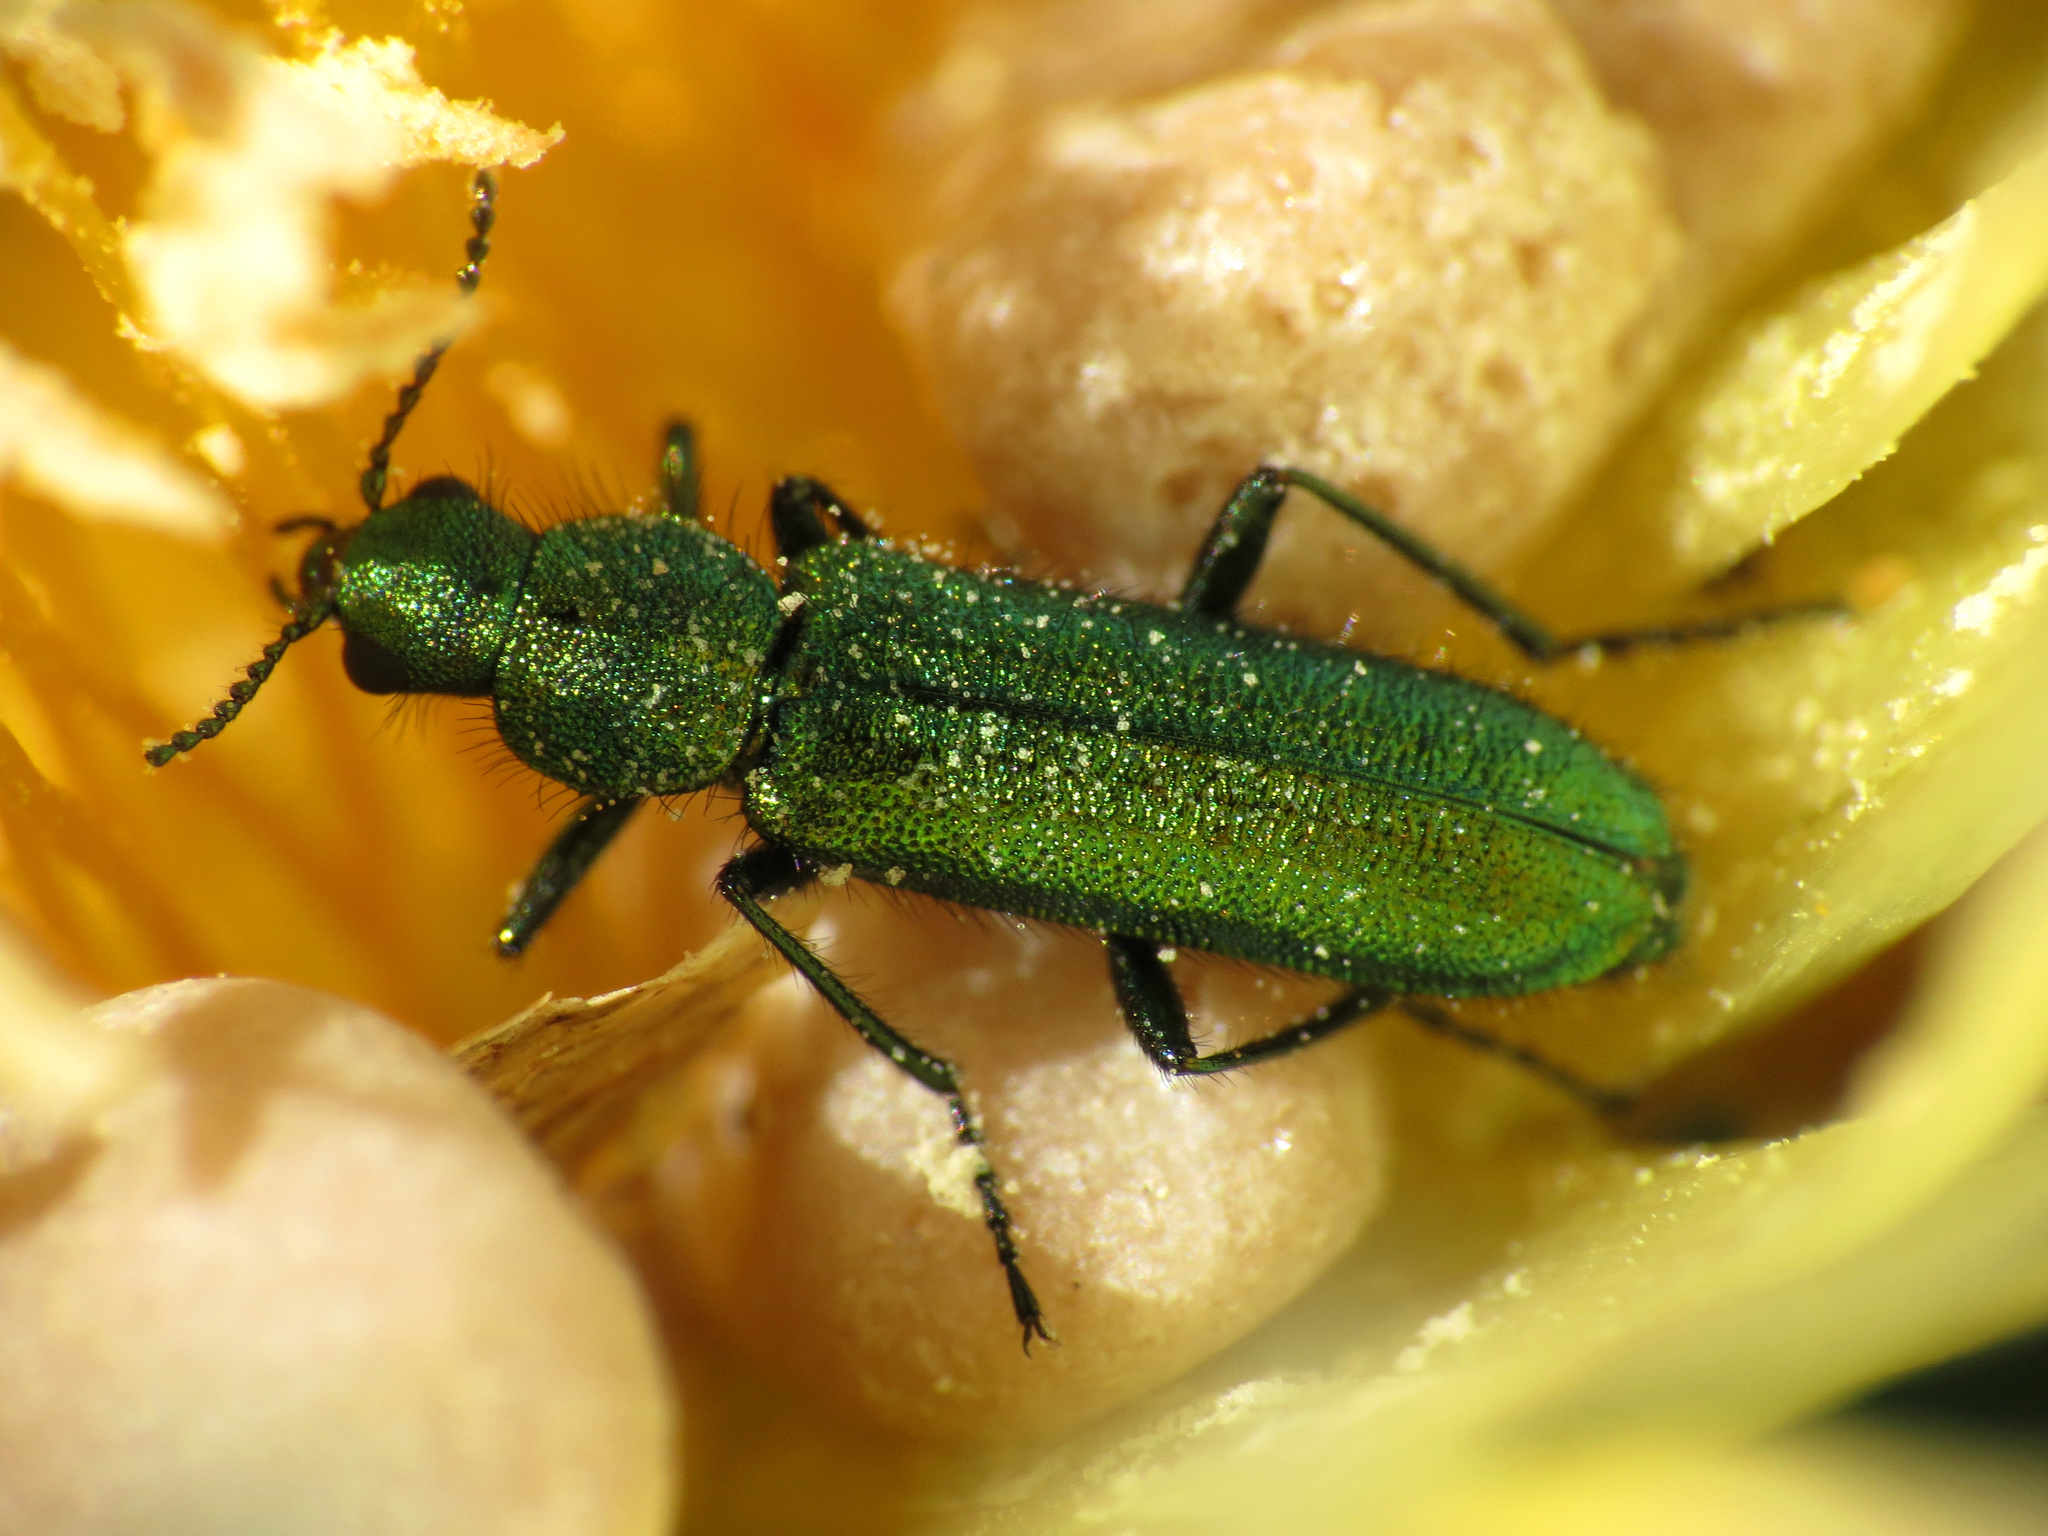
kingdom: Animalia
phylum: Arthropoda
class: Insecta
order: Coleoptera
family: Dasytidae
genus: Psilothrix
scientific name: Psilothrix viridicoerulea
